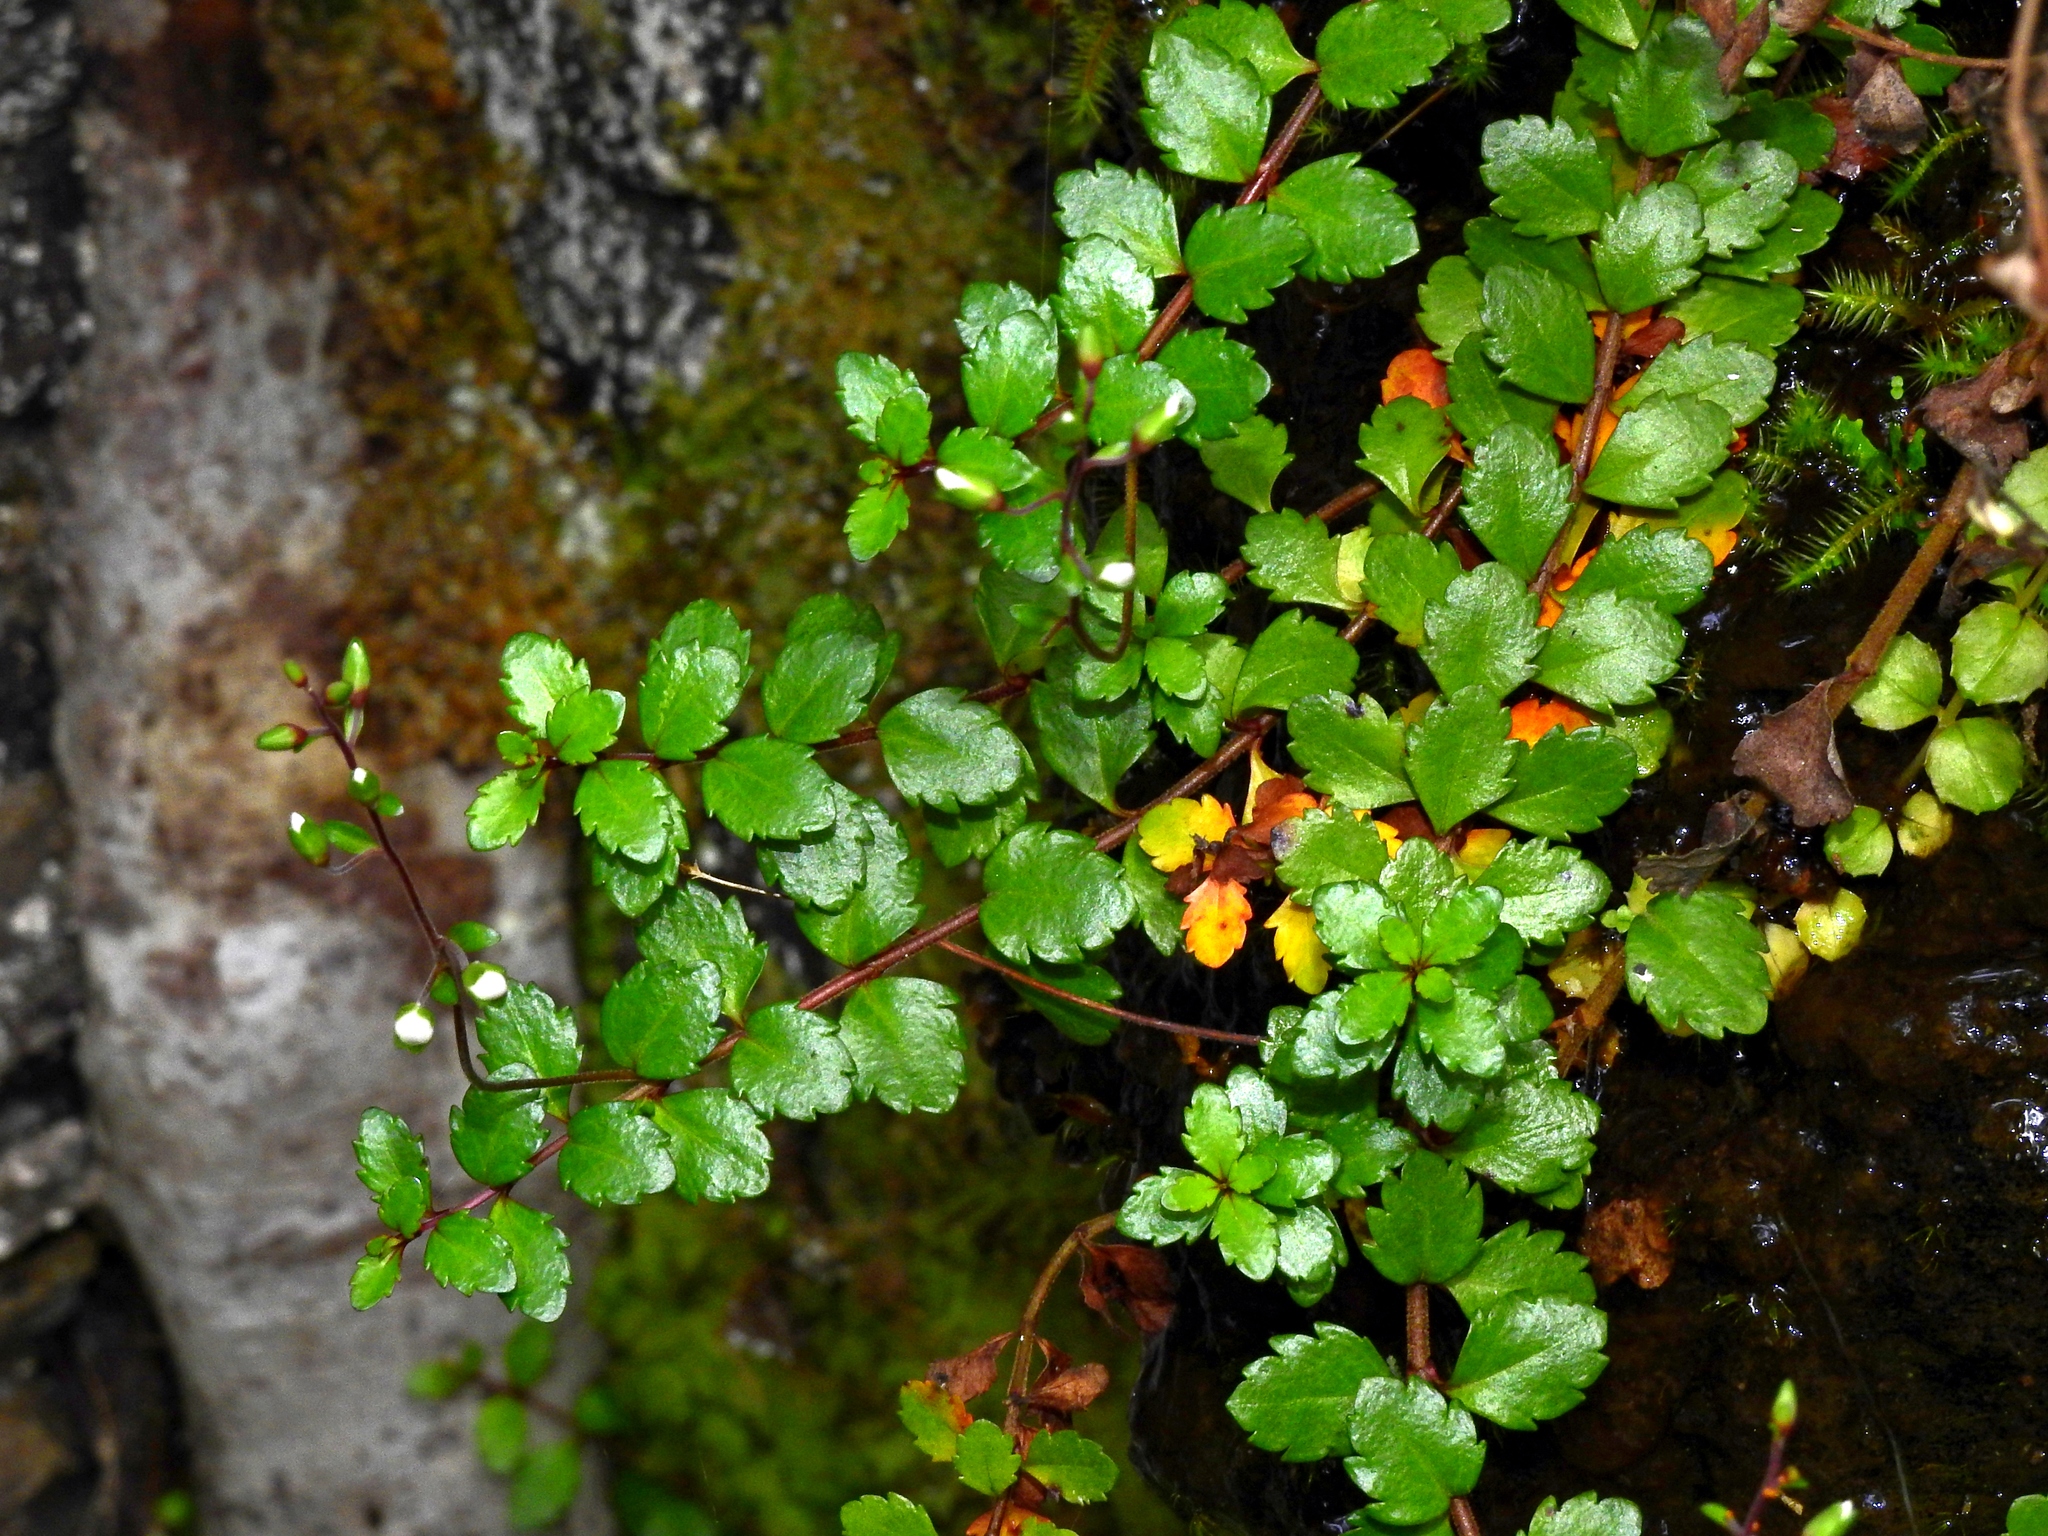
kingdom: Plantae
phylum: Tracheophyta
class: Magnoliopsida
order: Lamiales
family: Plantaginaceae
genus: Veronica
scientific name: Veronica lyallii
